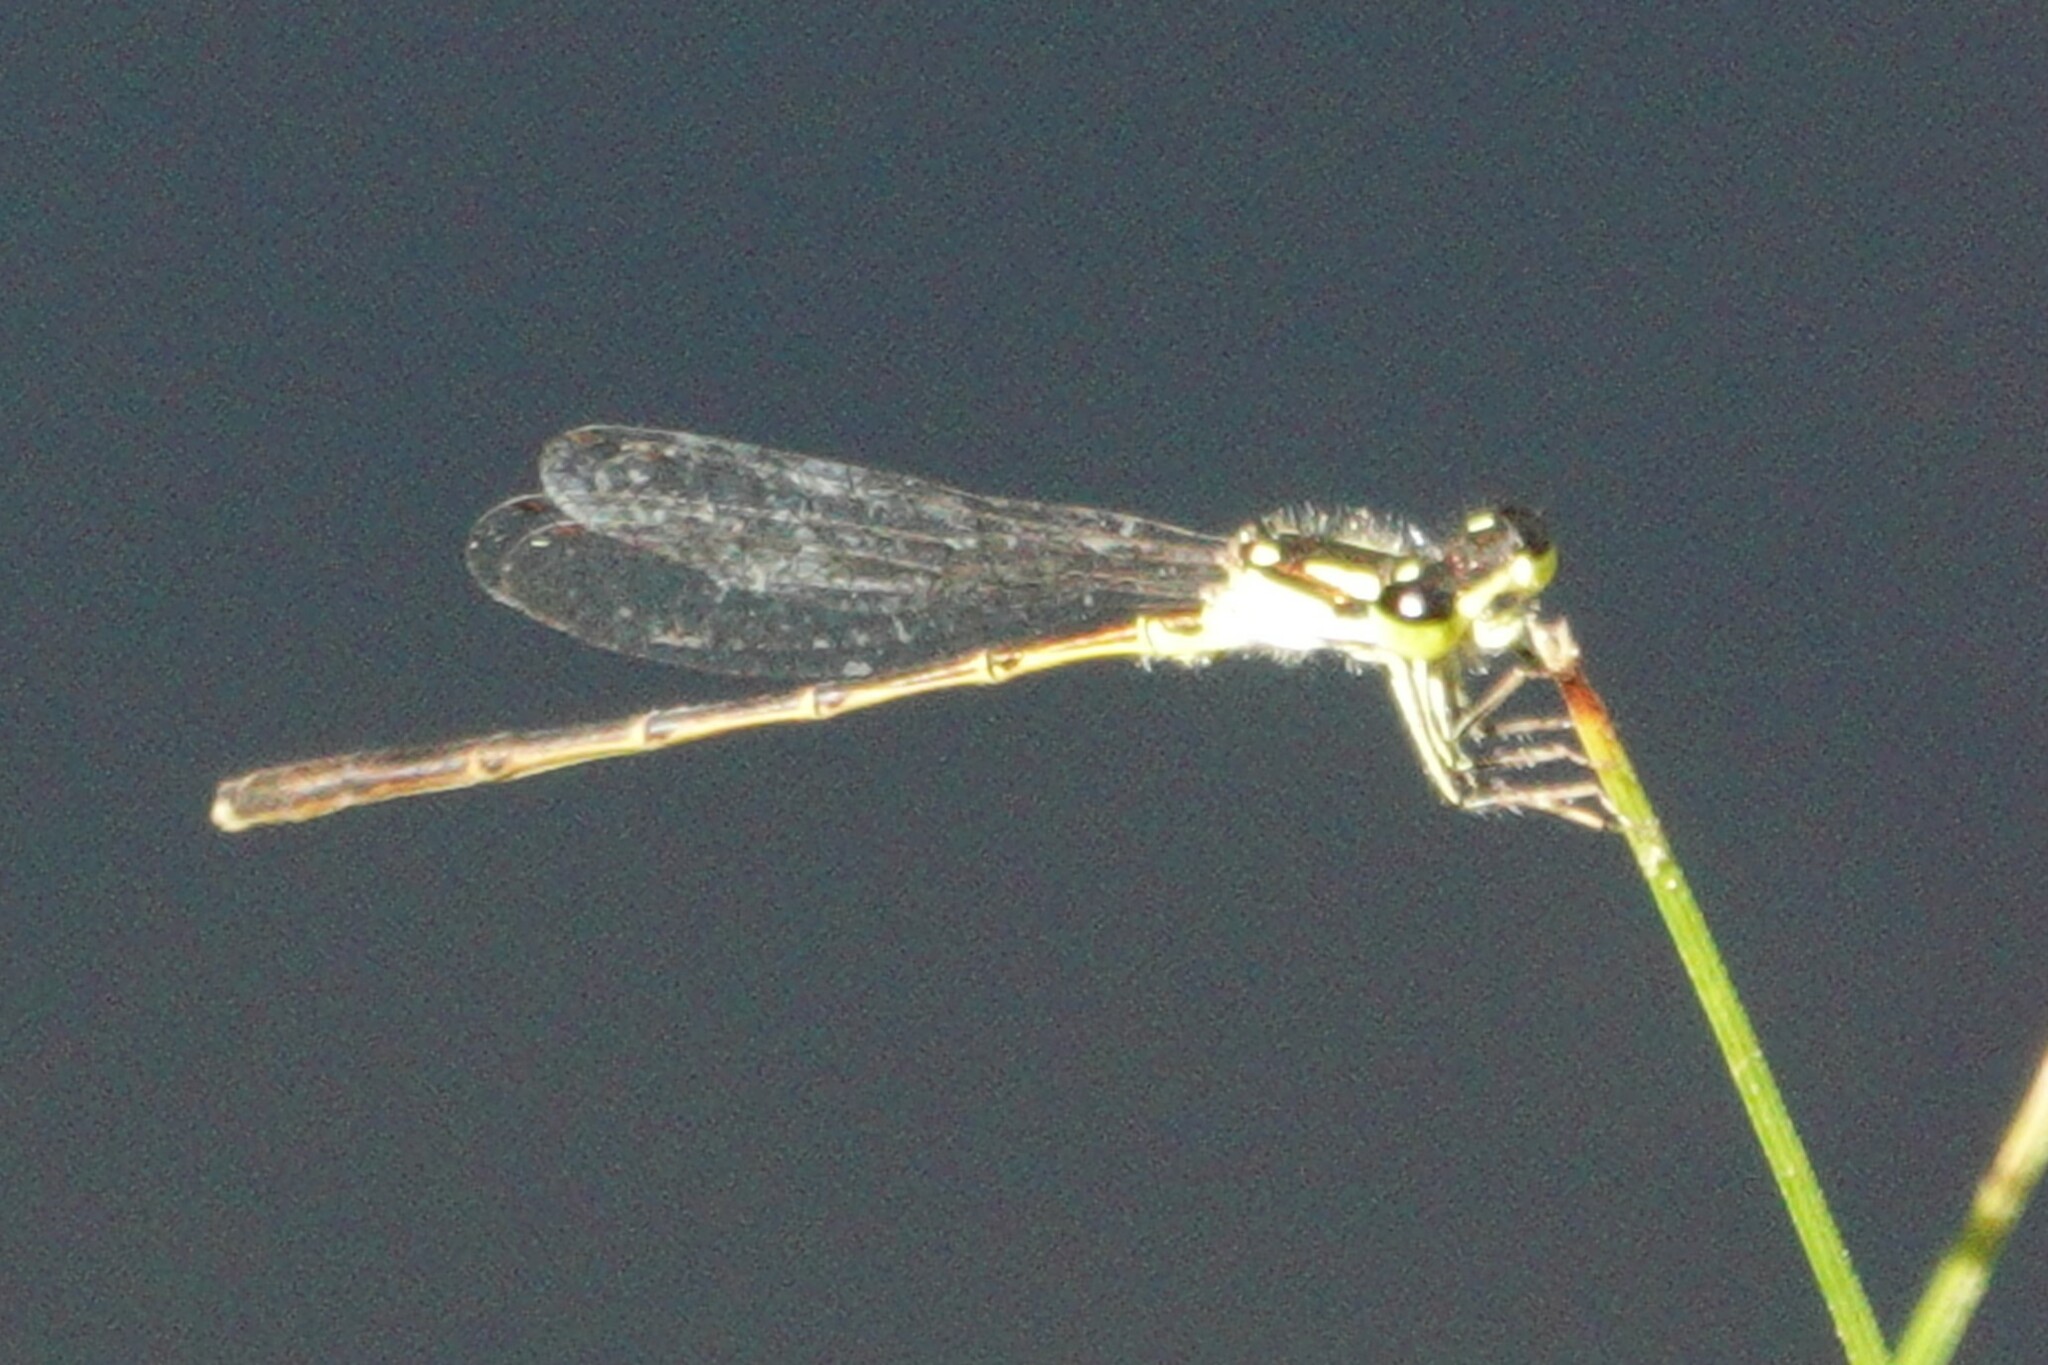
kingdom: Animalia
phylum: Arthropoda
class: Insecta
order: Odonata
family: Coenagrionidae
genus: Ischnura
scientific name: Ischnura posita
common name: Fragile forktail
